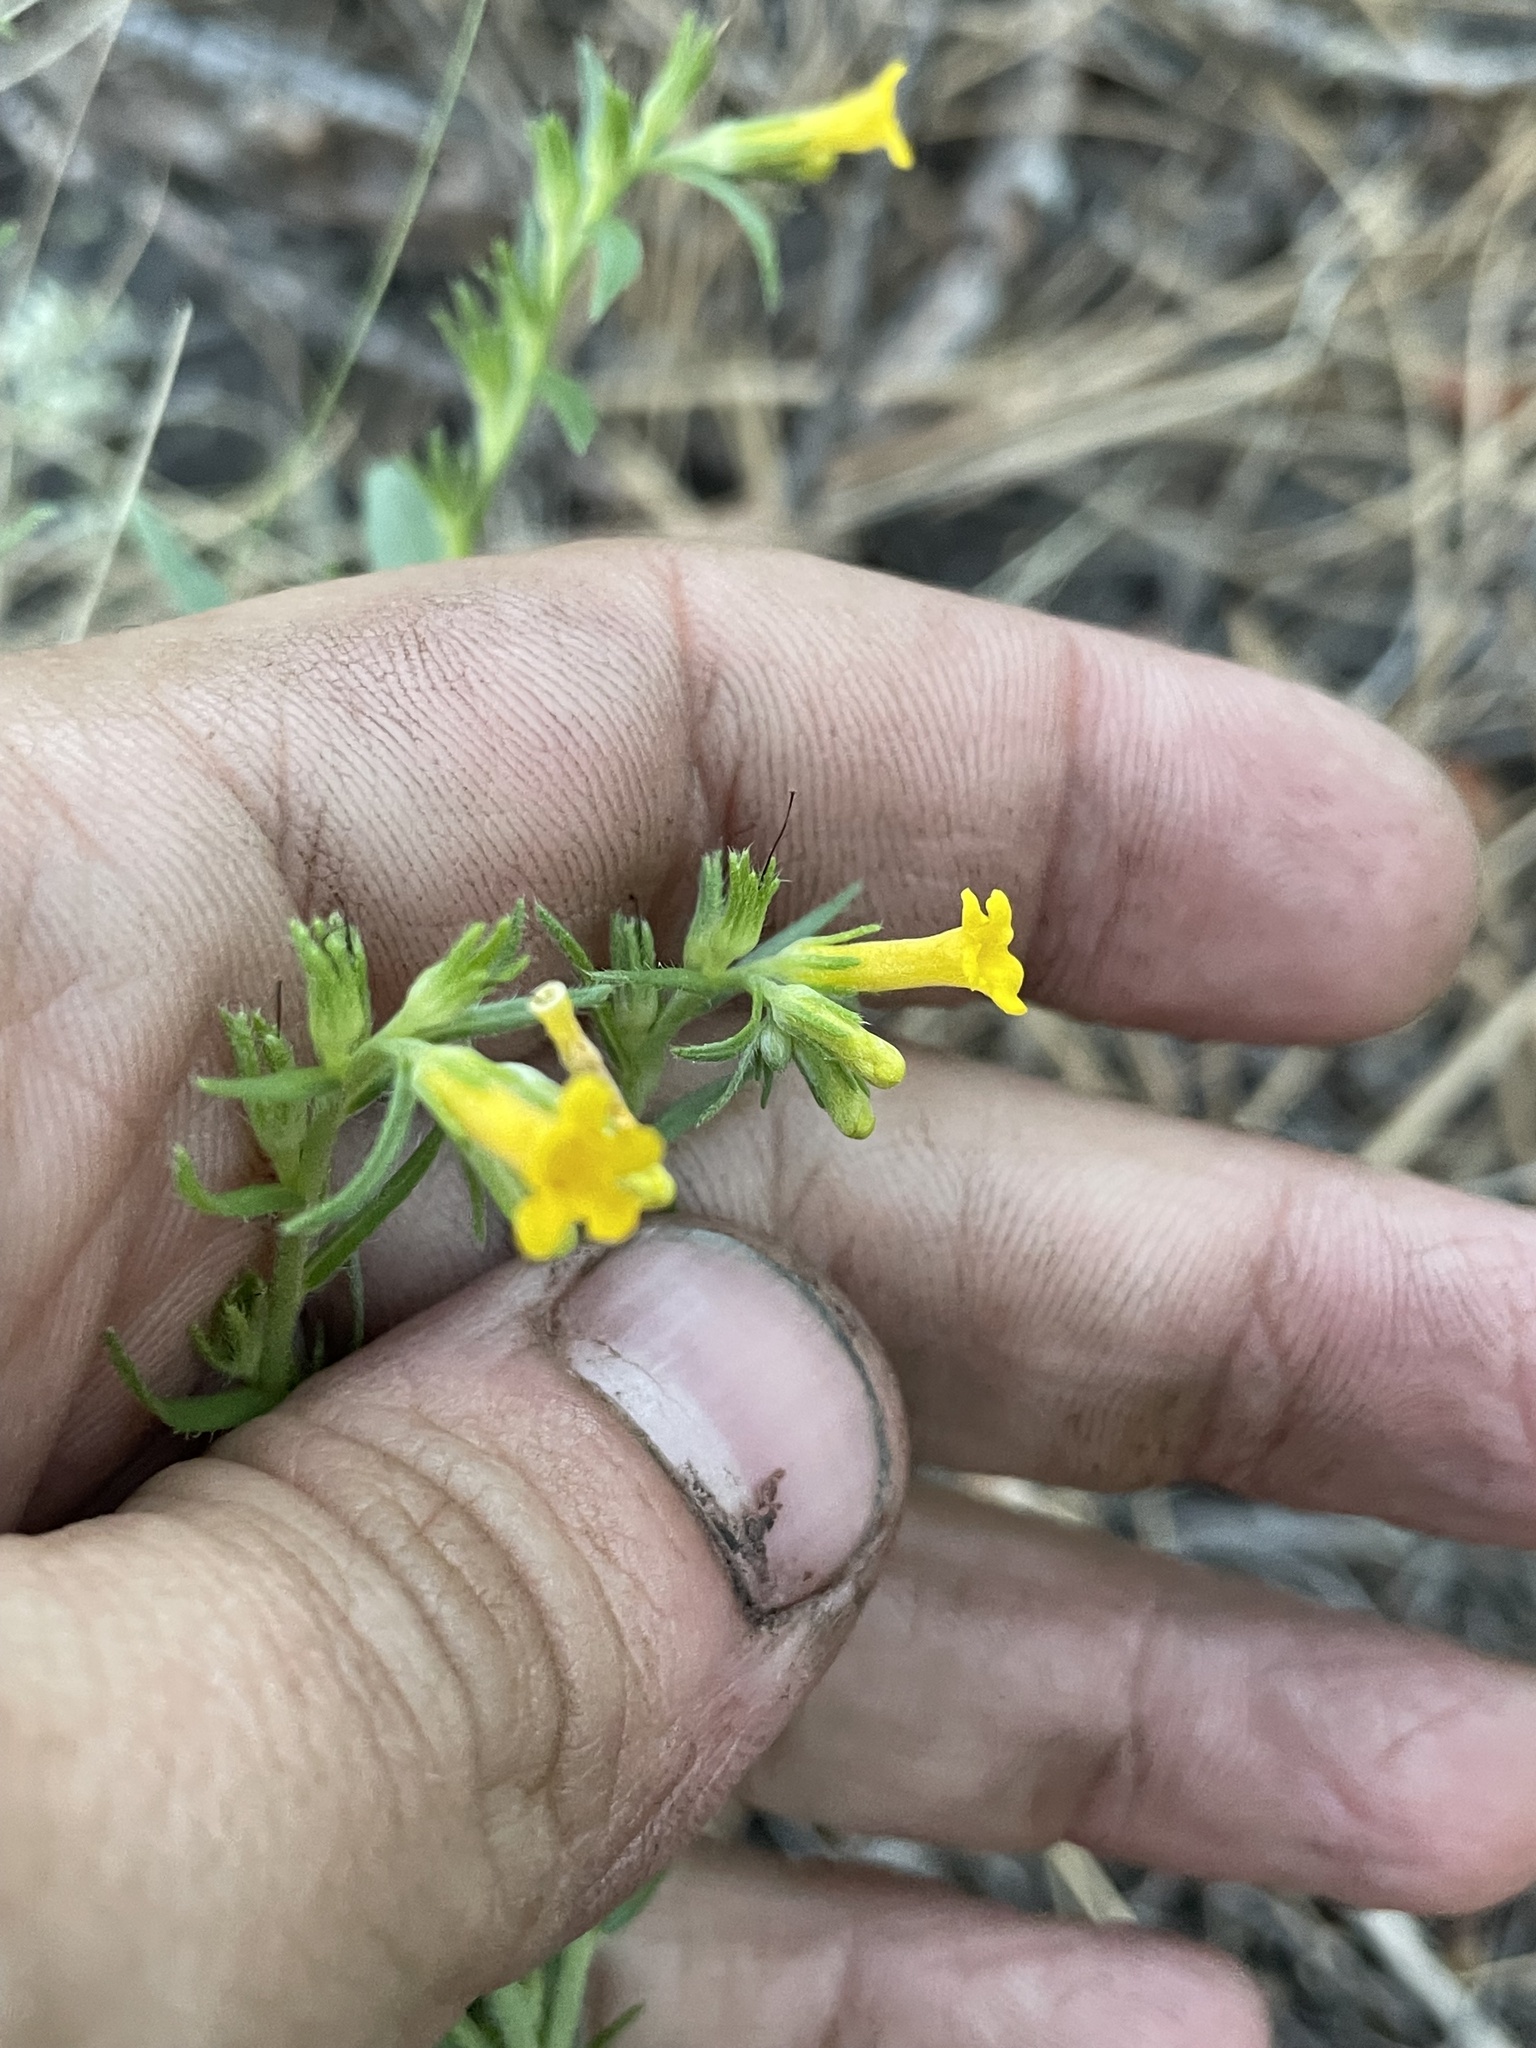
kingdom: Plantae
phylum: Tracheophyta
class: Magnoliopsida
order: Boraginales
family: Boraginaceae
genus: Lithospermum
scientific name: Lithospermum multiflorum
